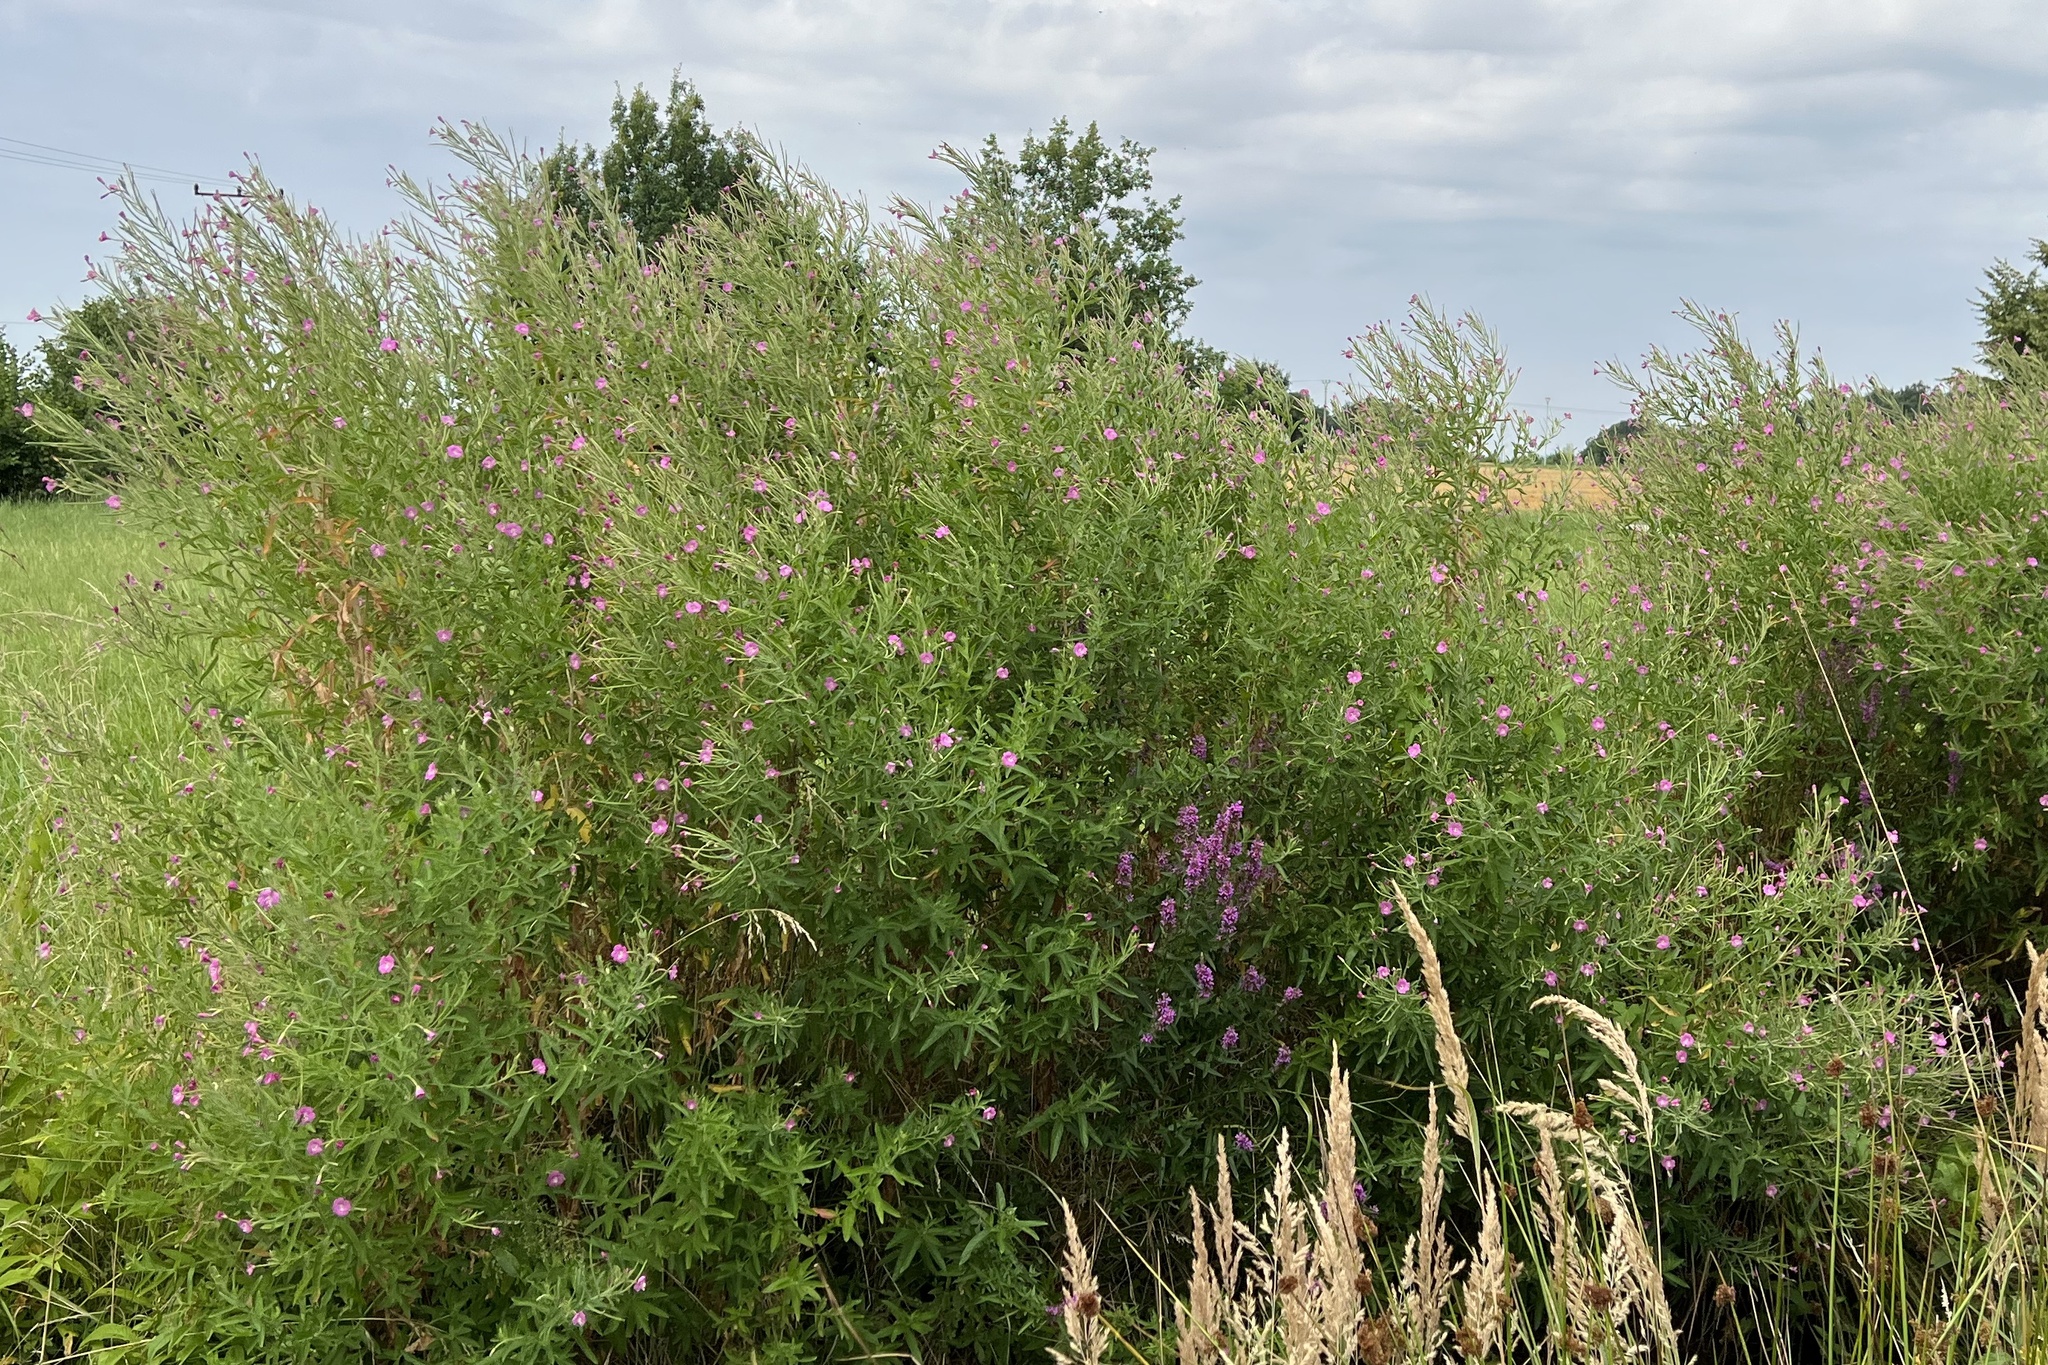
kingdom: Plantae
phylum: Tracheophyta
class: Magnoliopsida
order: Myrtales
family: Onagraceae
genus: Epilobium
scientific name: Epilobium hirsutum
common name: Great willowherb
